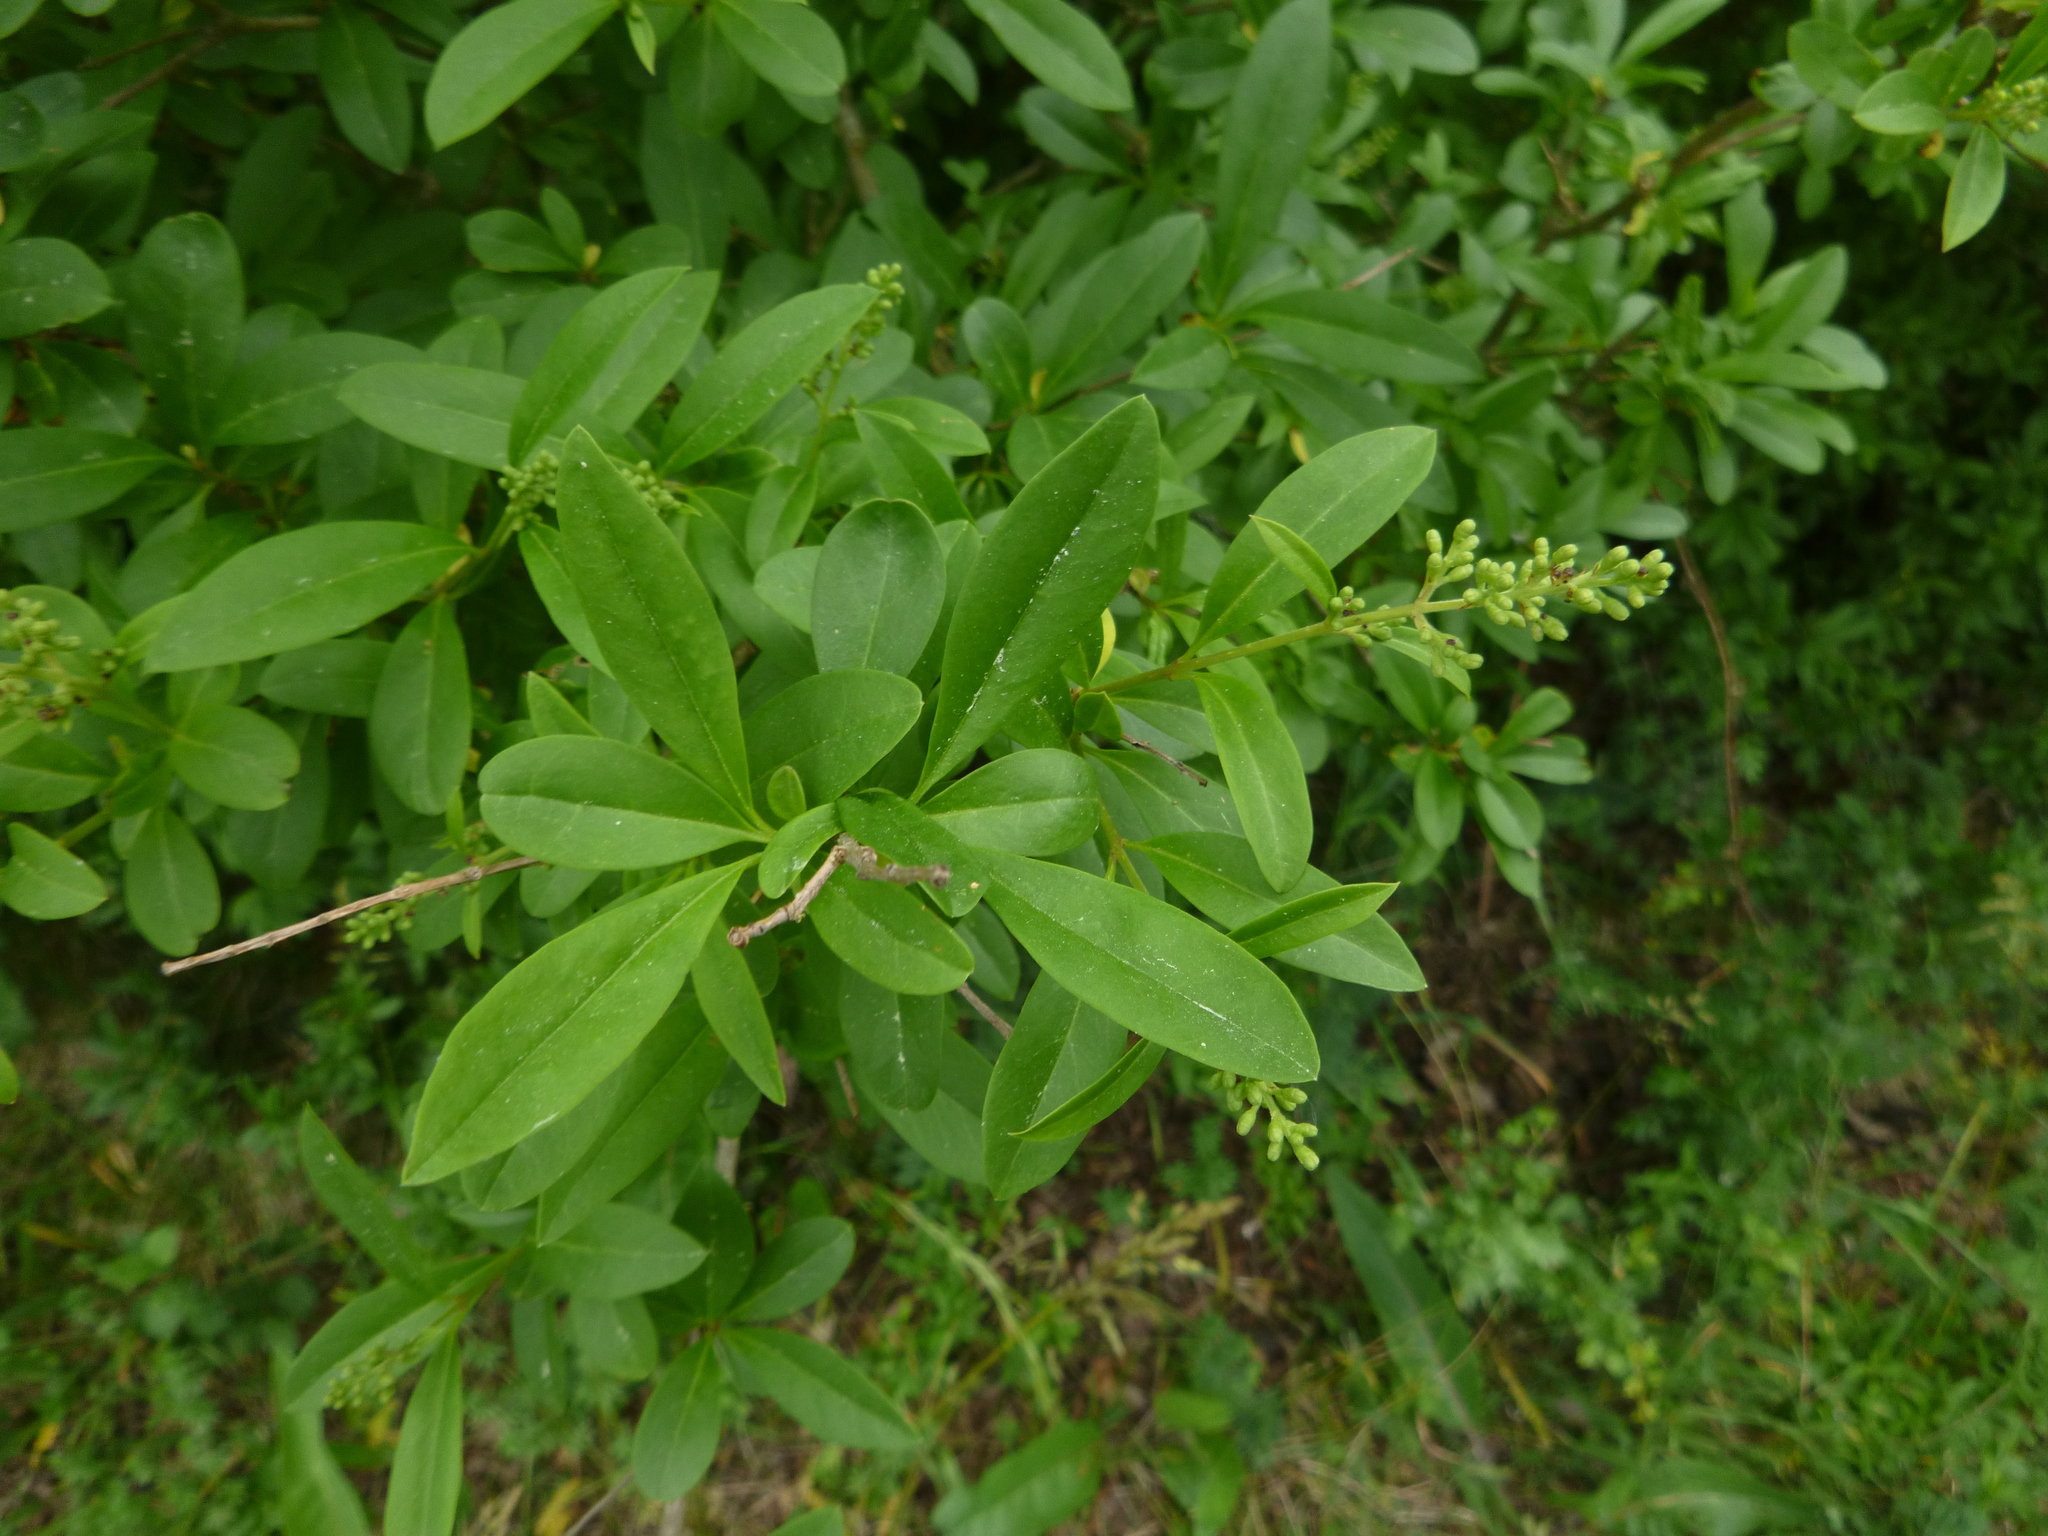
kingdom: Plantae
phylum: Tracheophyta
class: Magnoliopsida
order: Lamiales
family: Oleaceae
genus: Ligustrum
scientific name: Ligustrum vulgare
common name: Wild privet
